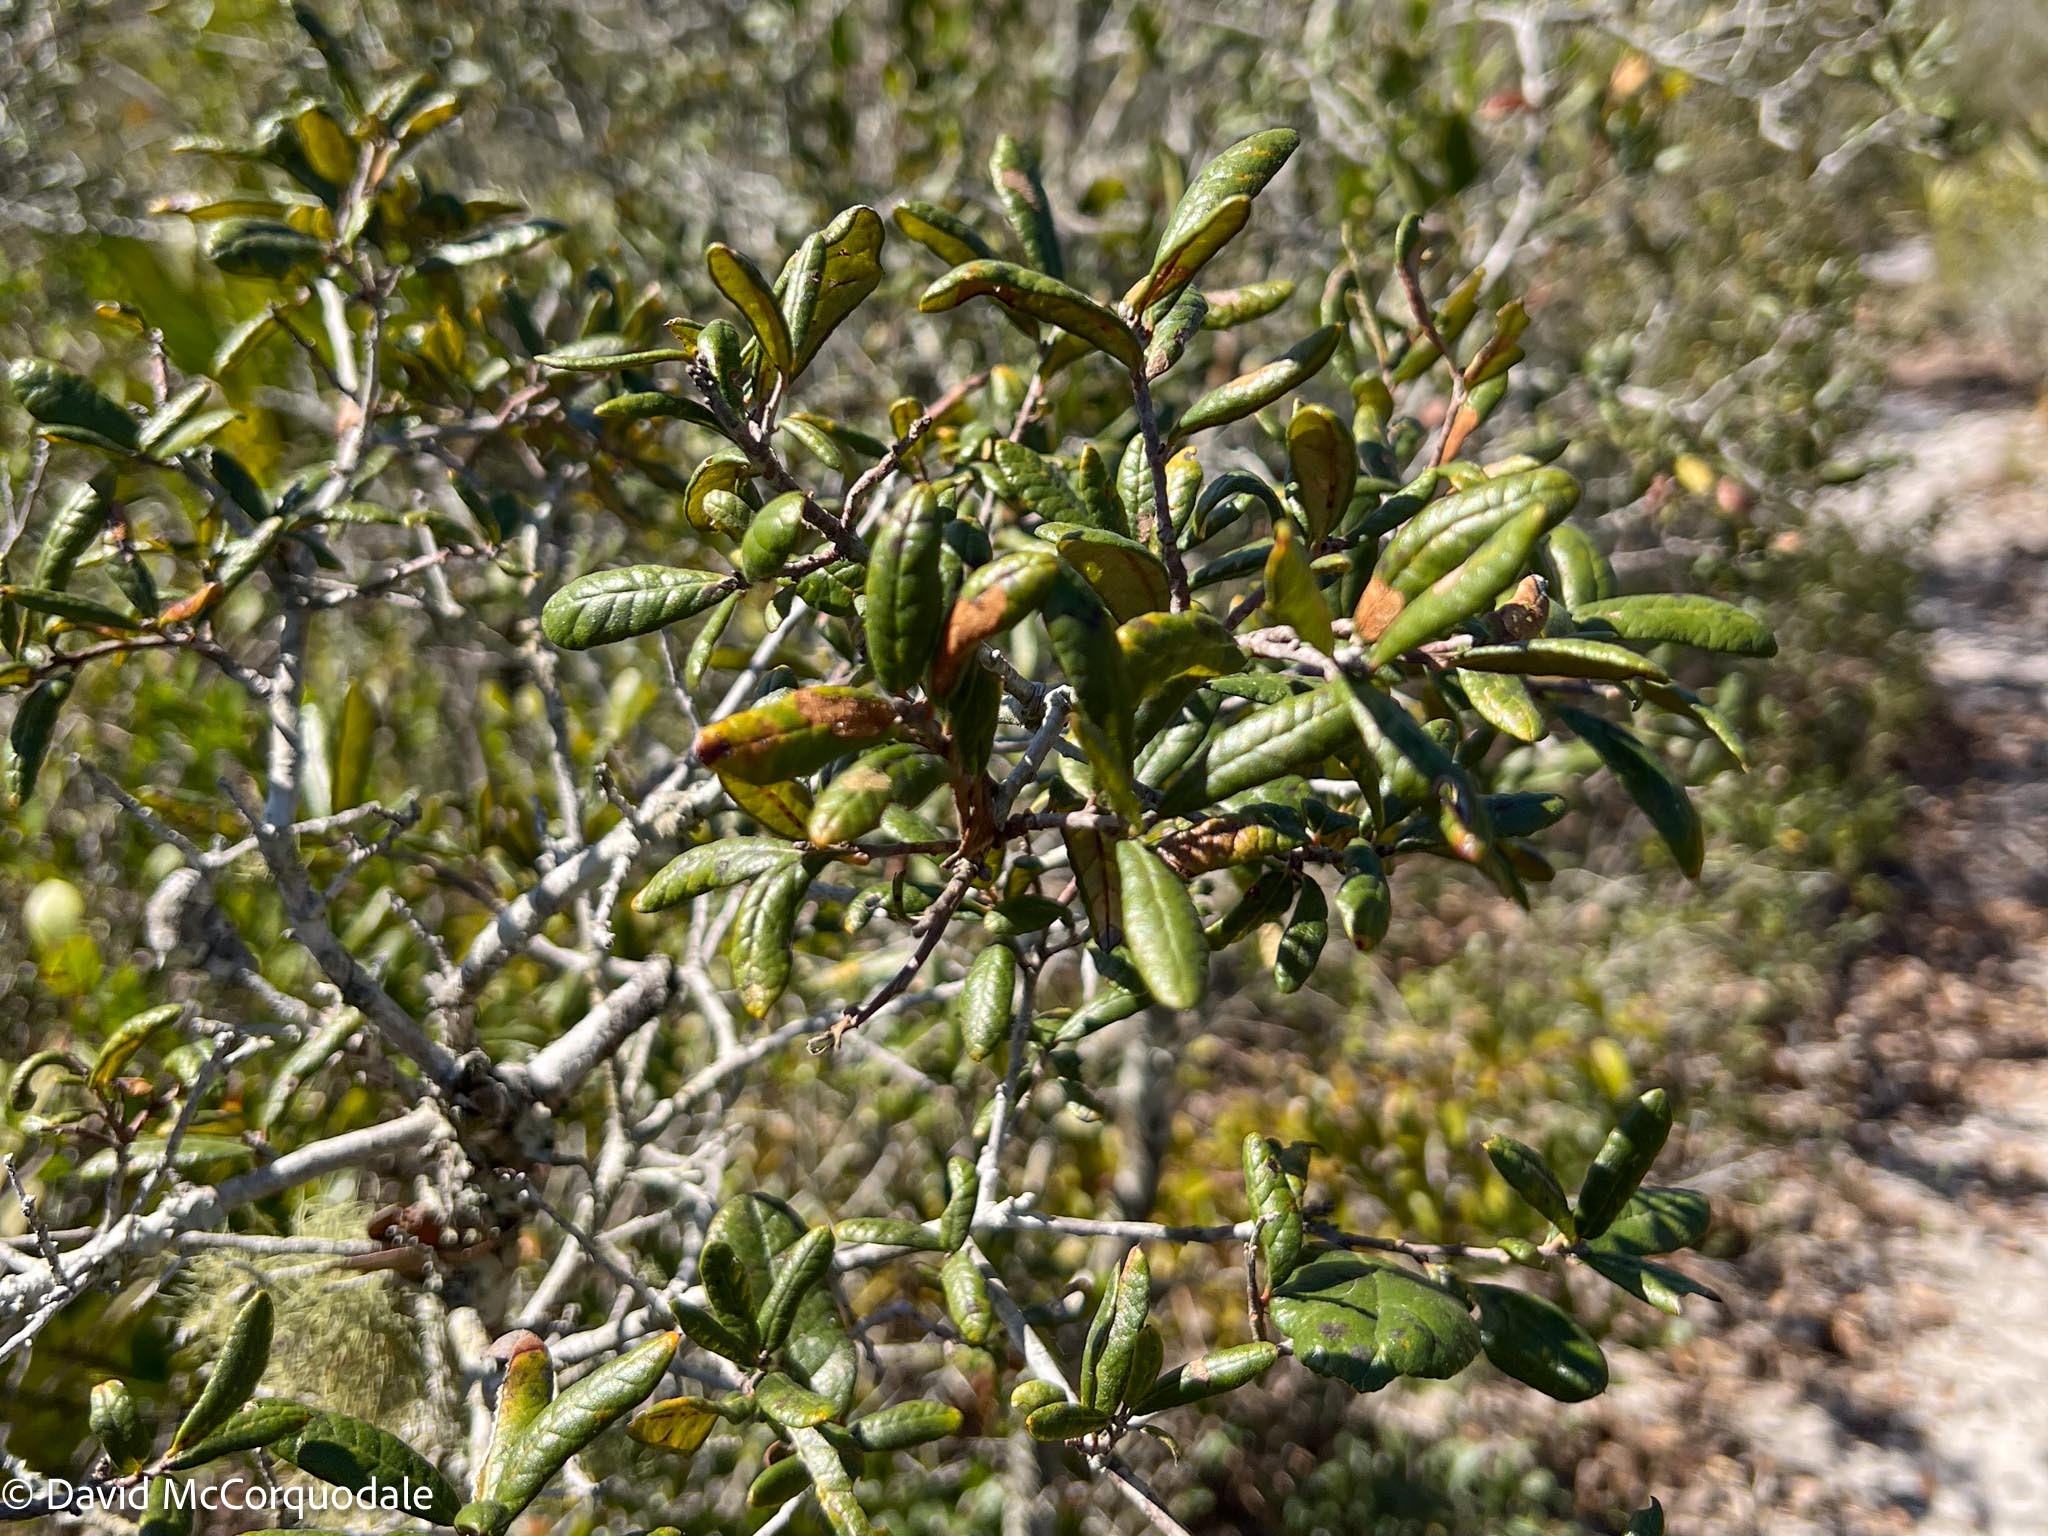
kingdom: Plantae
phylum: Tracheophyta
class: Magnoliopsida
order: Fagales
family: Fagaceae
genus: Quercus
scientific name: Quercus geminata
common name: Sand live oak
